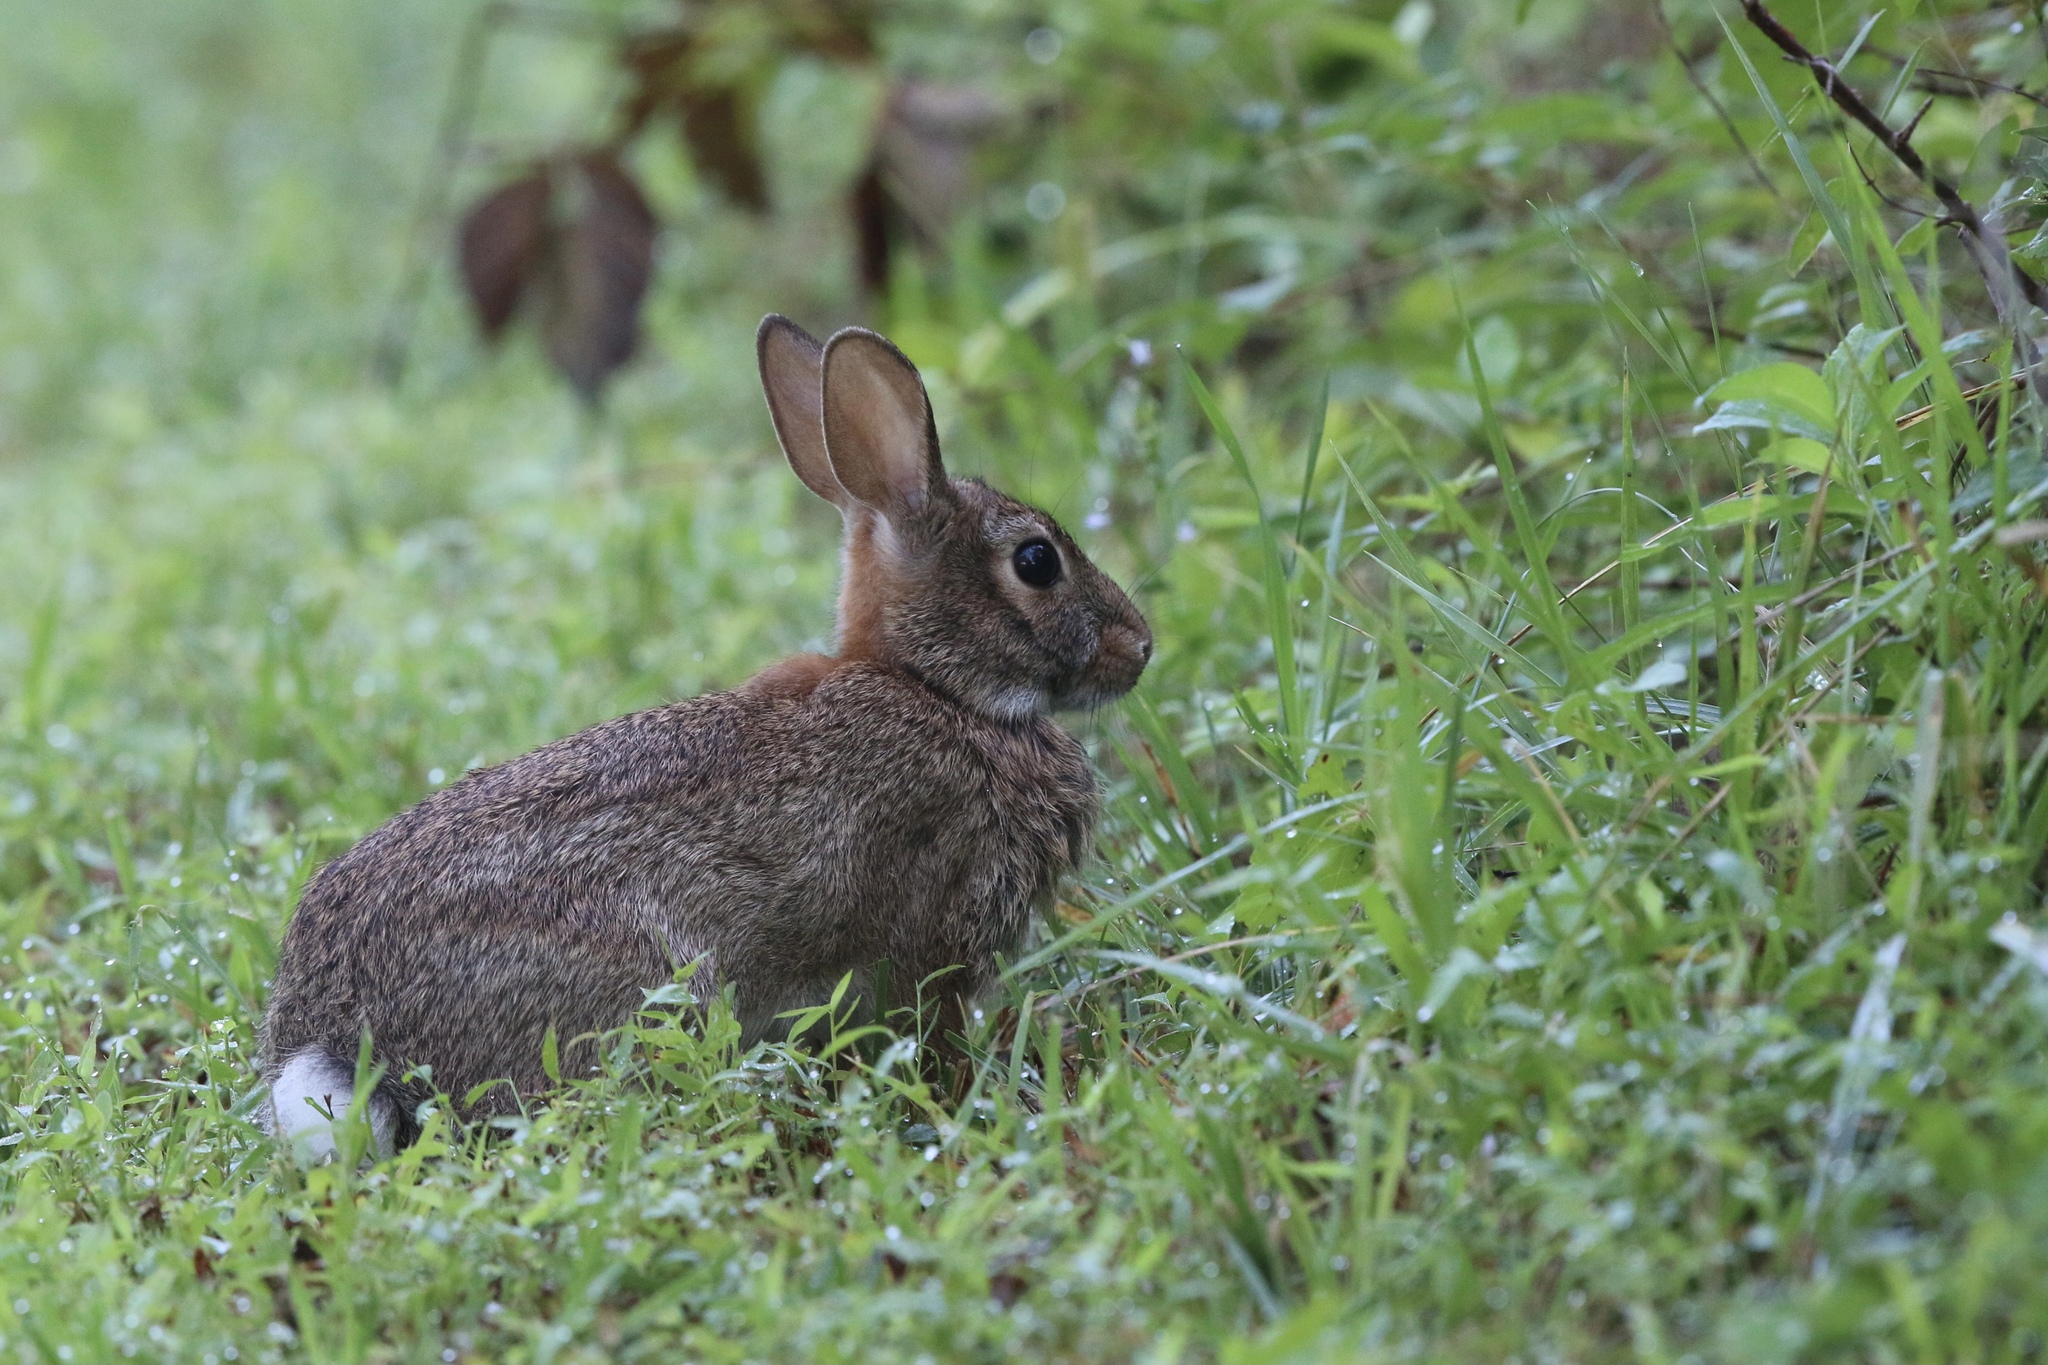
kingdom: Animalia
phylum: Chordata
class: Mammalia
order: Lagomorpha
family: Leporidae
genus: Sylvilagus
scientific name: Sylvilagus floridanus
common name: Eastern cottontail
